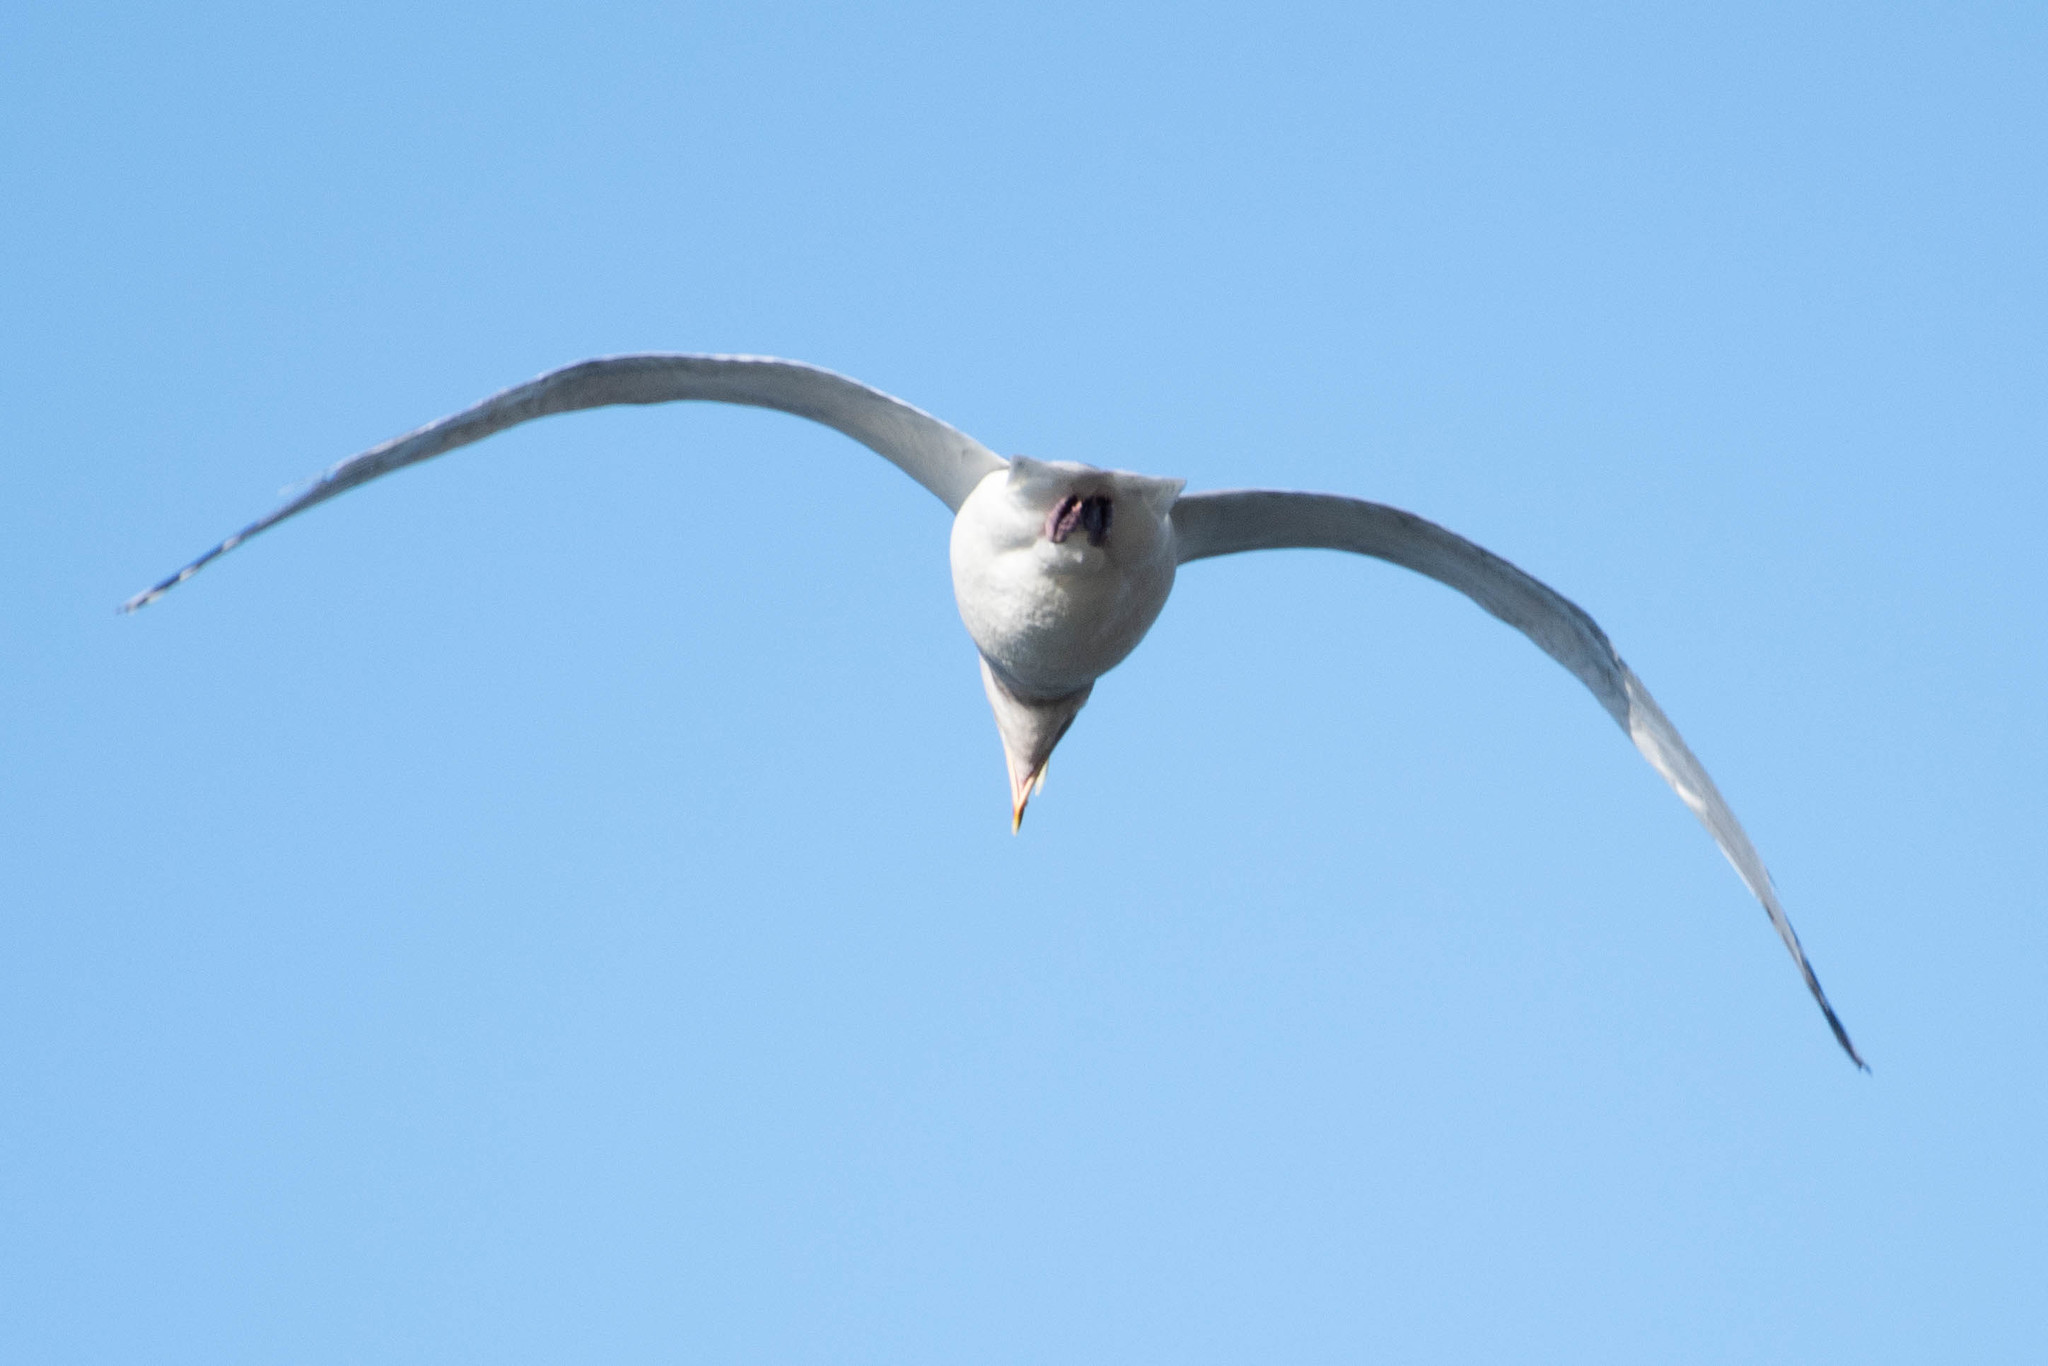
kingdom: Animalia
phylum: Chordata
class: Aves
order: Charadriiformes
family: Laridae
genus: Larus
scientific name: Larus
